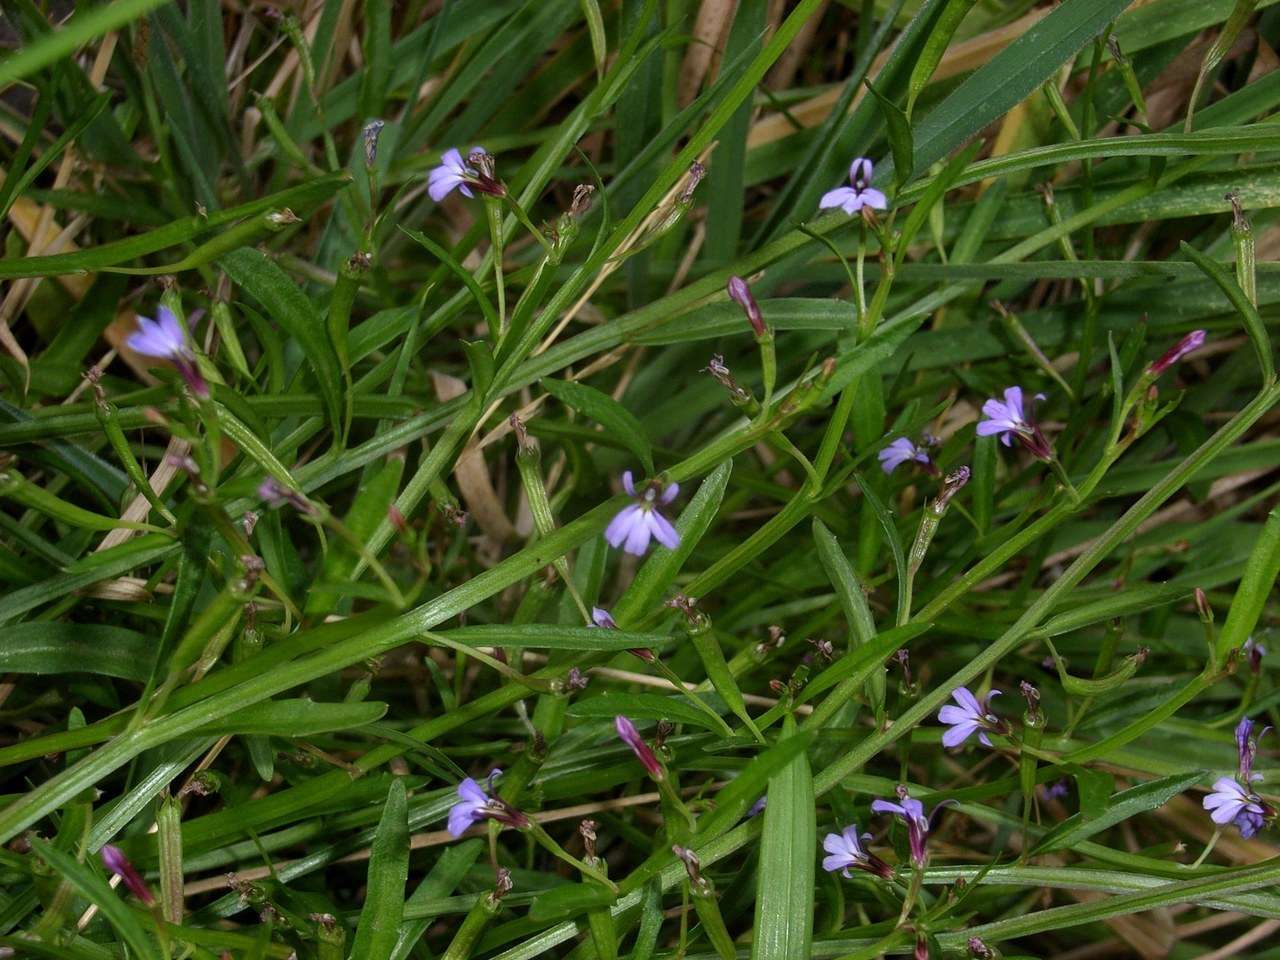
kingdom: Plantae
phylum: Tracheophyta
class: Magnoliopsida
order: Asterales
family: Campanulaceae
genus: Lobelia
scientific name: Lobelia anceps
